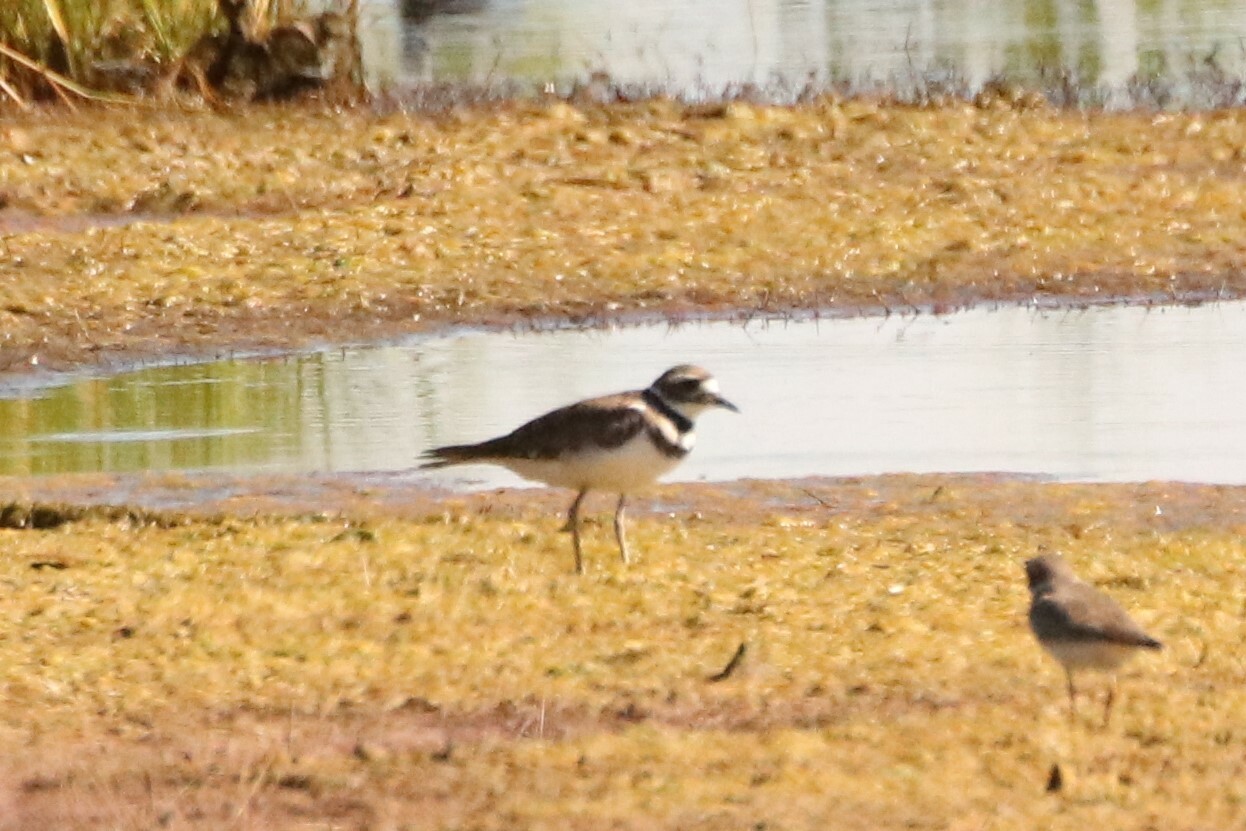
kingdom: Animalia
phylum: Chordata
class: Aves
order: Charadriiformes
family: Charadriidae
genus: Charadrius
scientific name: Charadrius vociferus
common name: Killdeer
